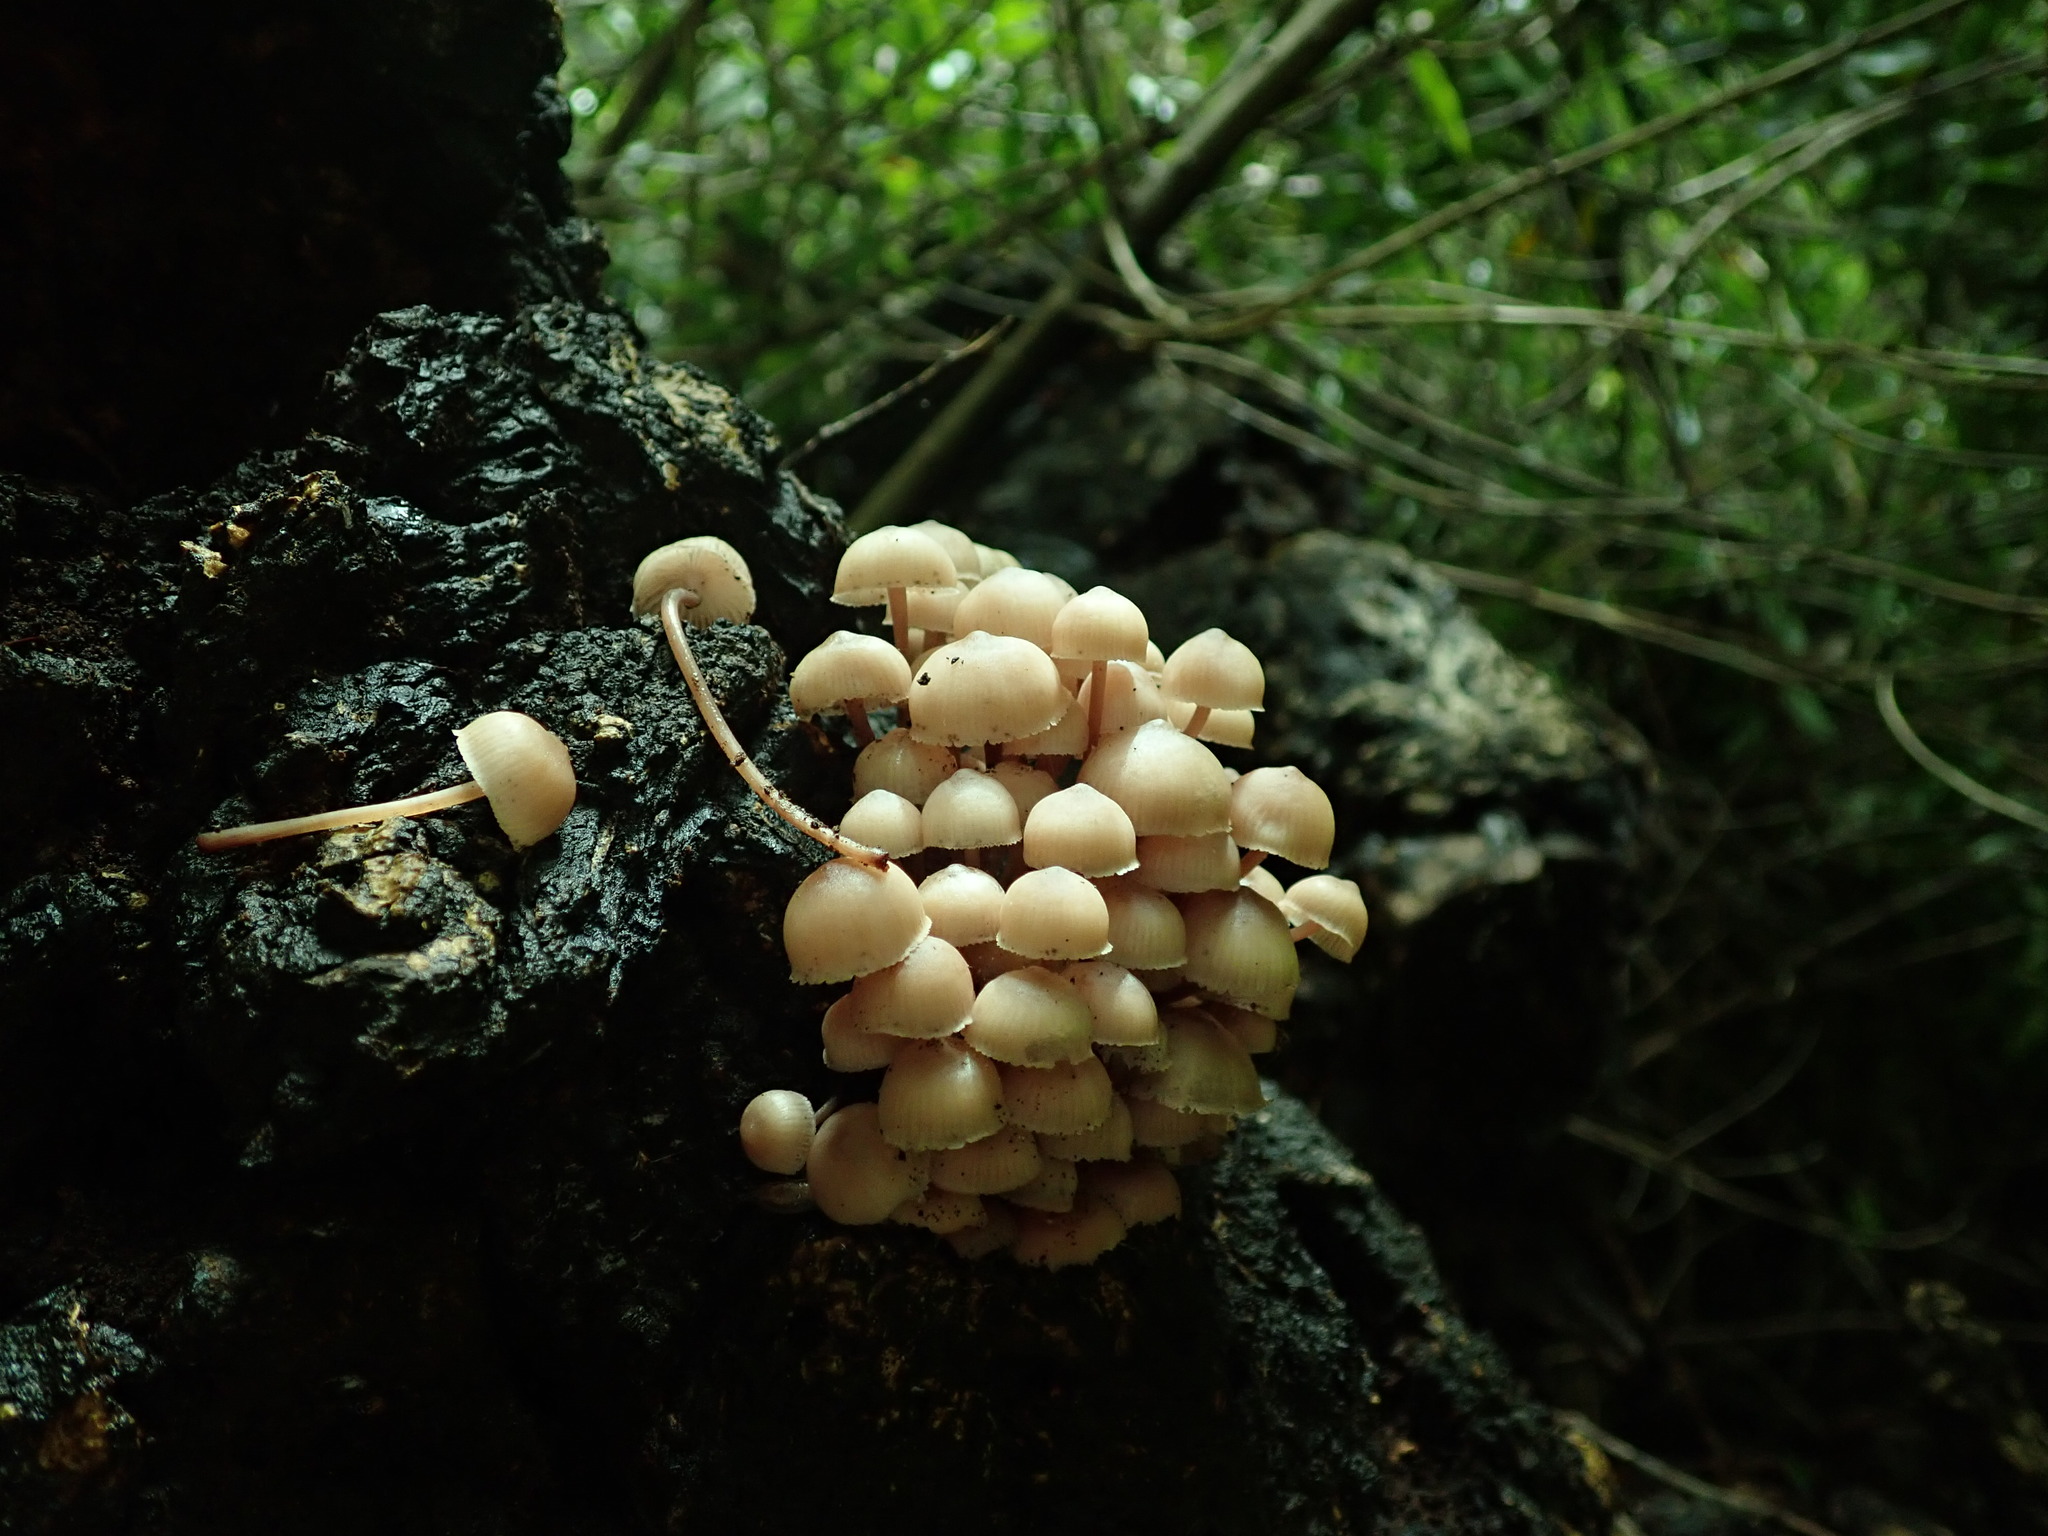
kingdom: Fungi
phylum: Basidiomycota
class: Agaricomycetes
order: Agaricales
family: Mycenaceae
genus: Mycena
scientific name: Mycena haematopus
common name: Burgundydrop bonnet
